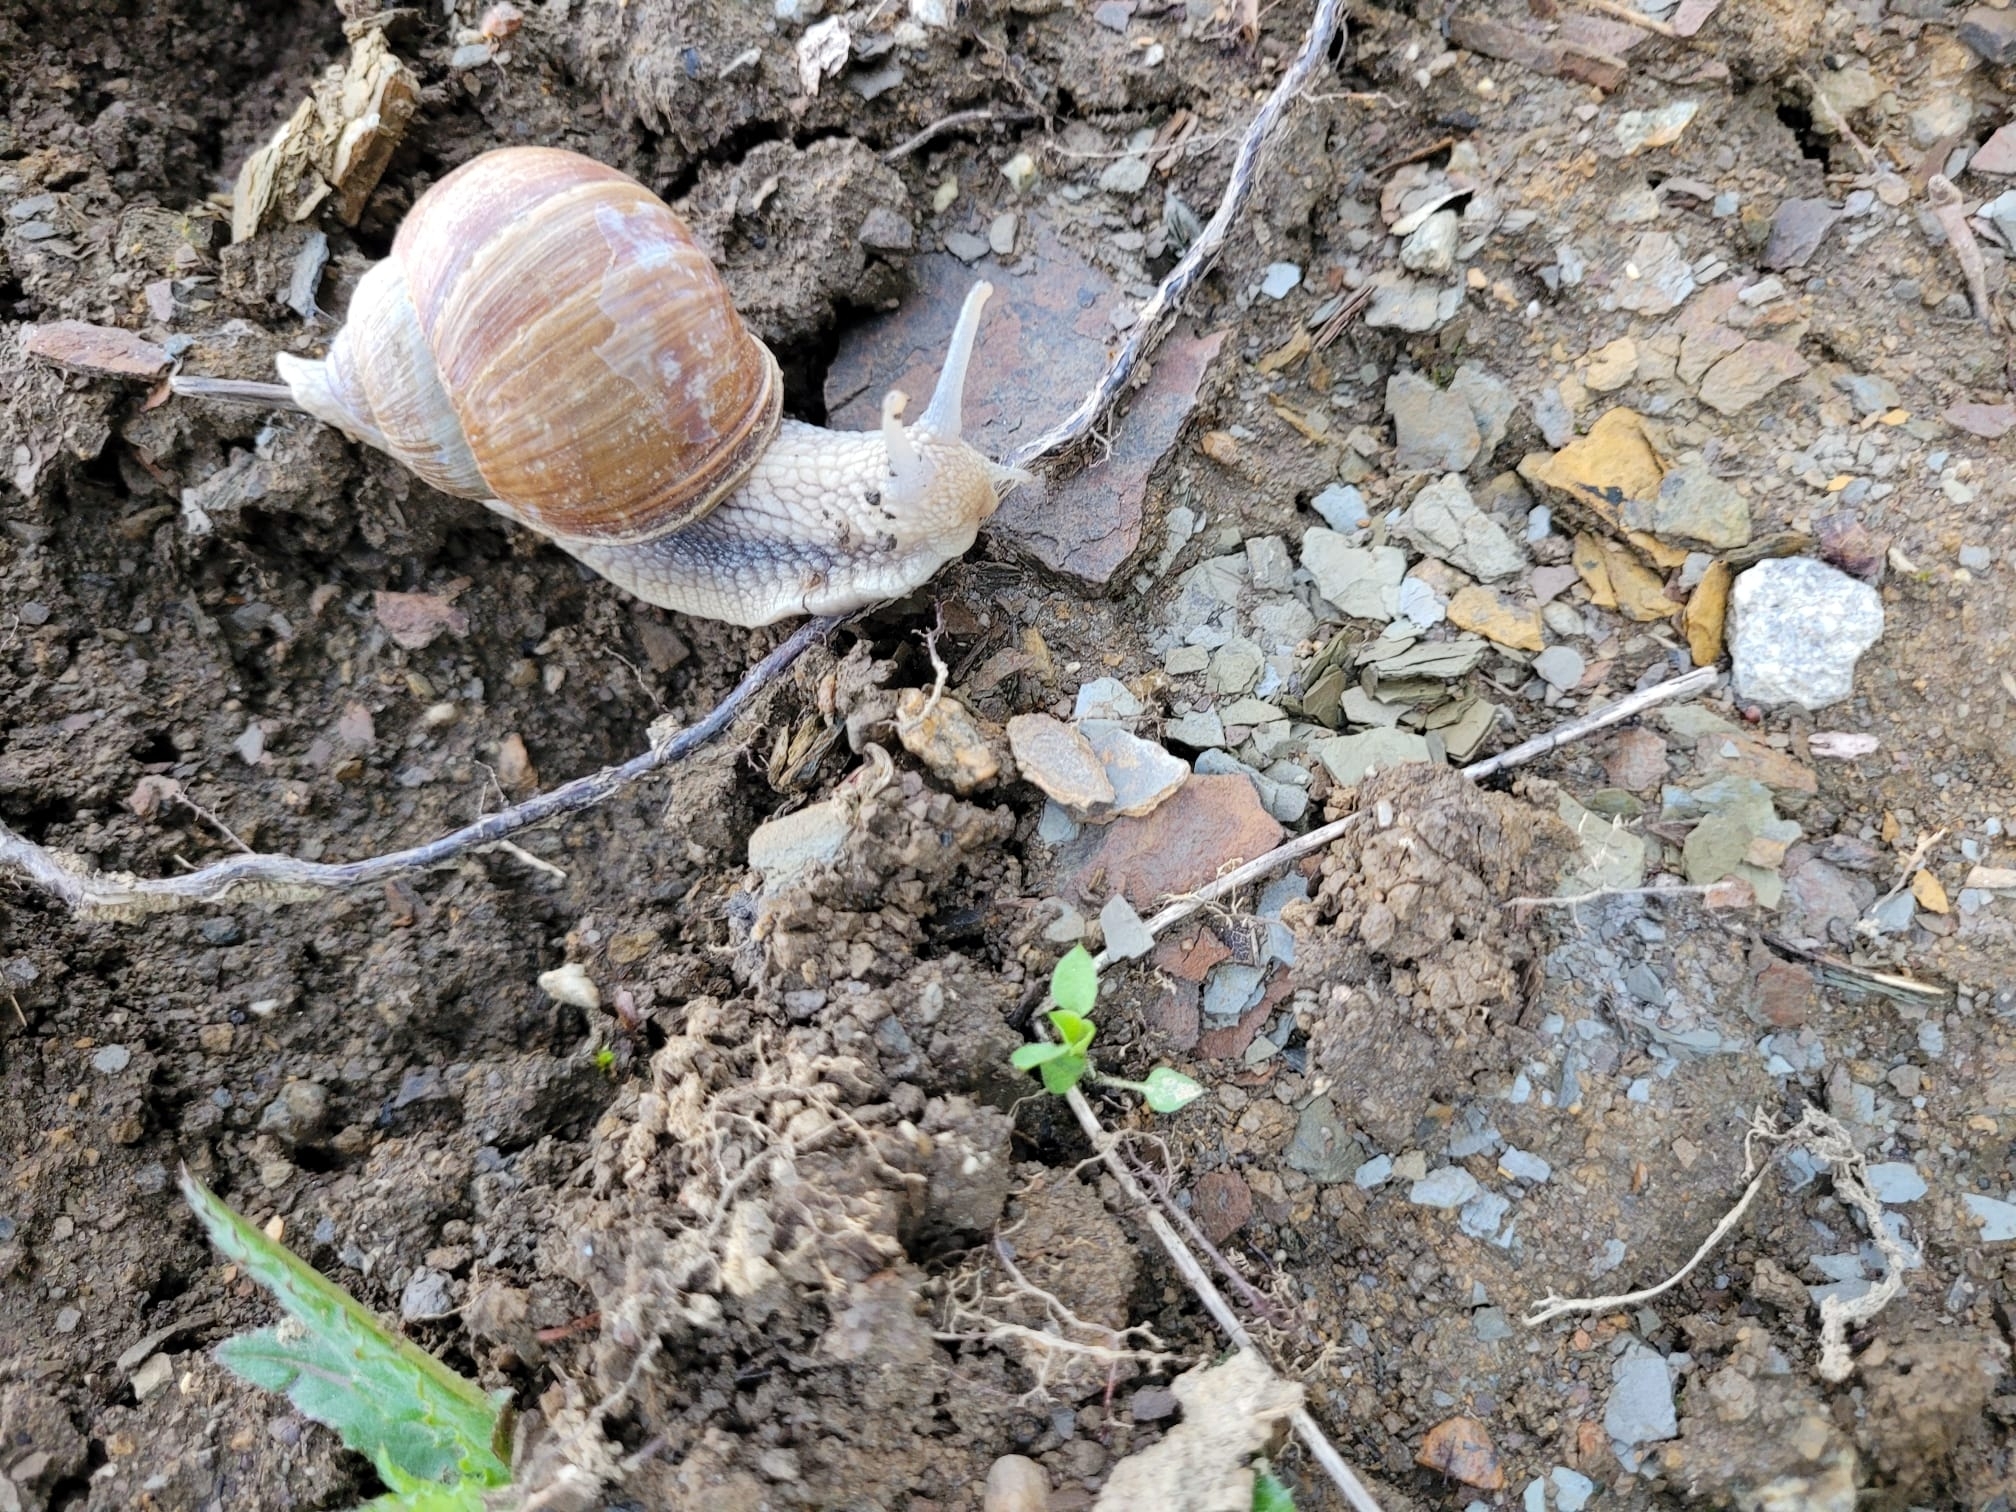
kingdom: Animalia
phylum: Mollusca
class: Gastropoda
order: Stylommatophora
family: Helicidae
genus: Helix
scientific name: Helix pomatia
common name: Roman snail
